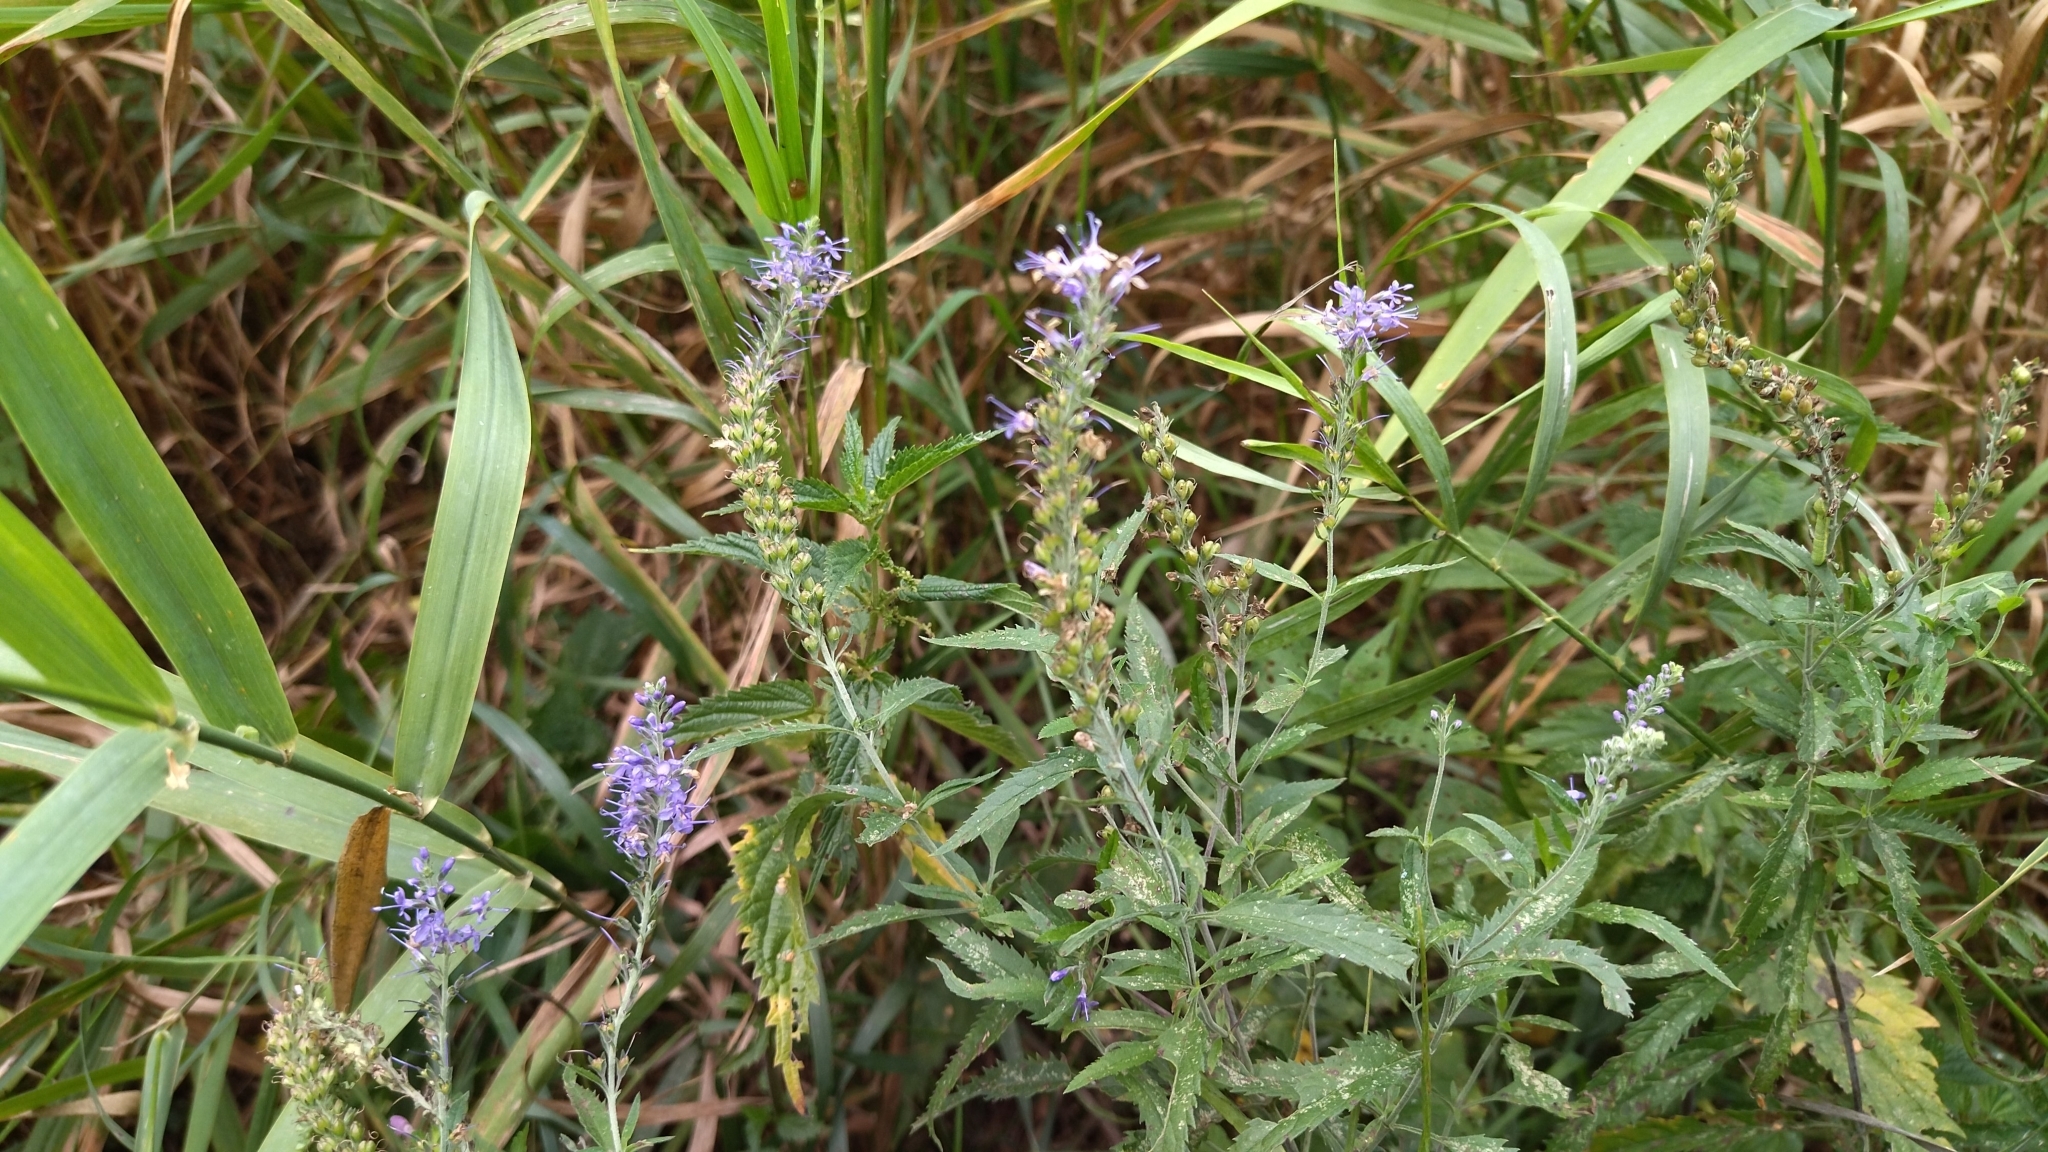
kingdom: Plantae
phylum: Tracheophyta
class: Magnoliopsida
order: Lamiales
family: Plantaginaceae
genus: Veronica
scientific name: Veronica longifolia
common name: Garden speedwell
